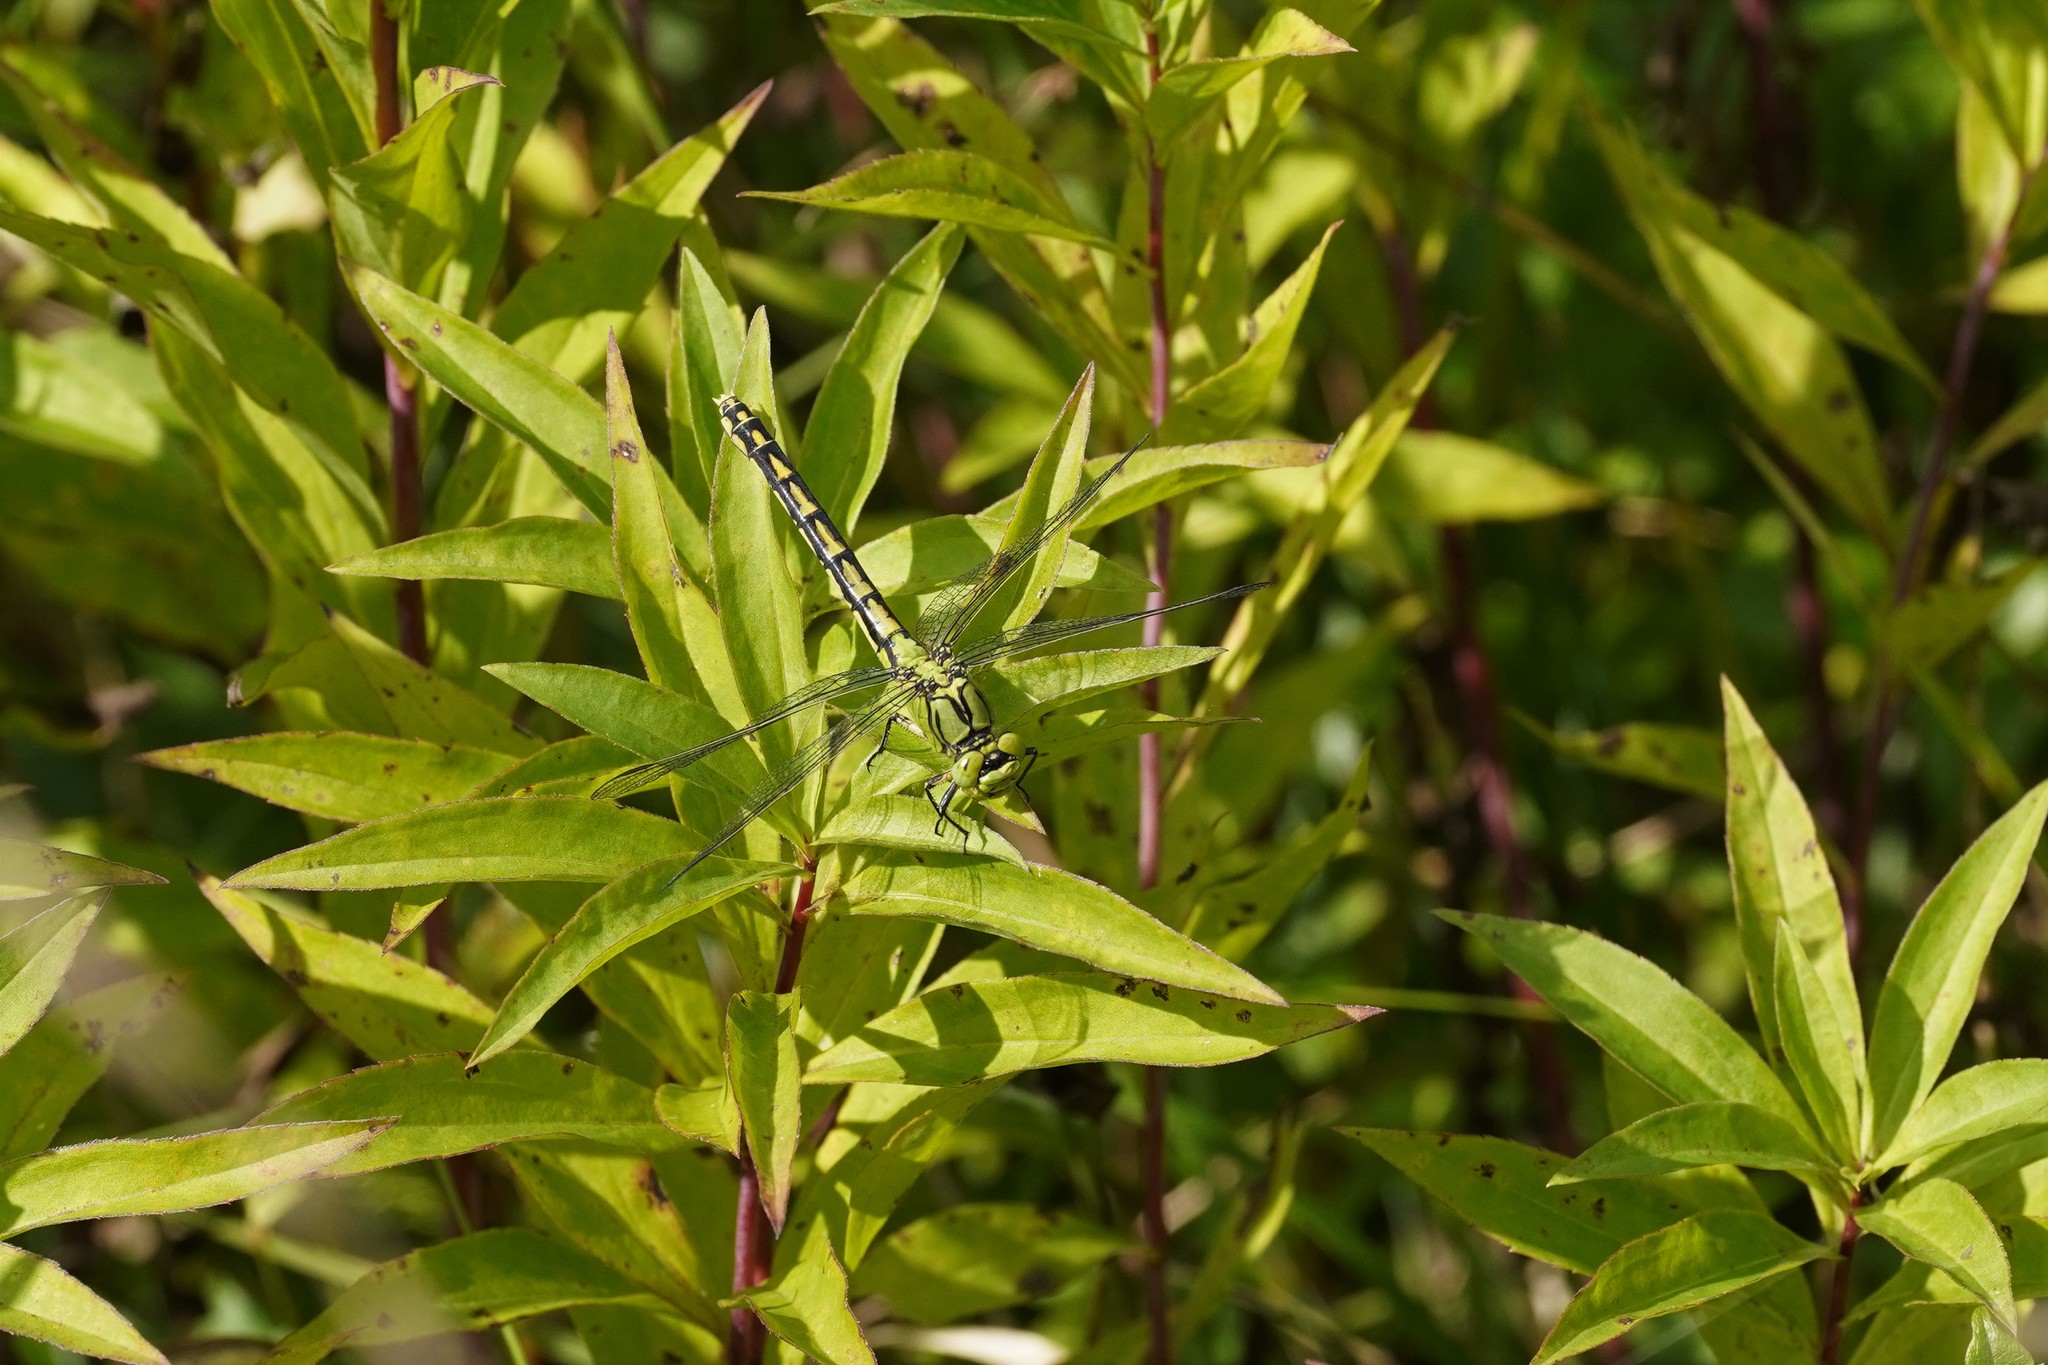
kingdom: Animalia
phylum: Arthropoda
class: Insecta
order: Odonata
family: Gomphidae
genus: Ophiogomphus
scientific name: Ophiogomphus cecilia
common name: Green snaketail
